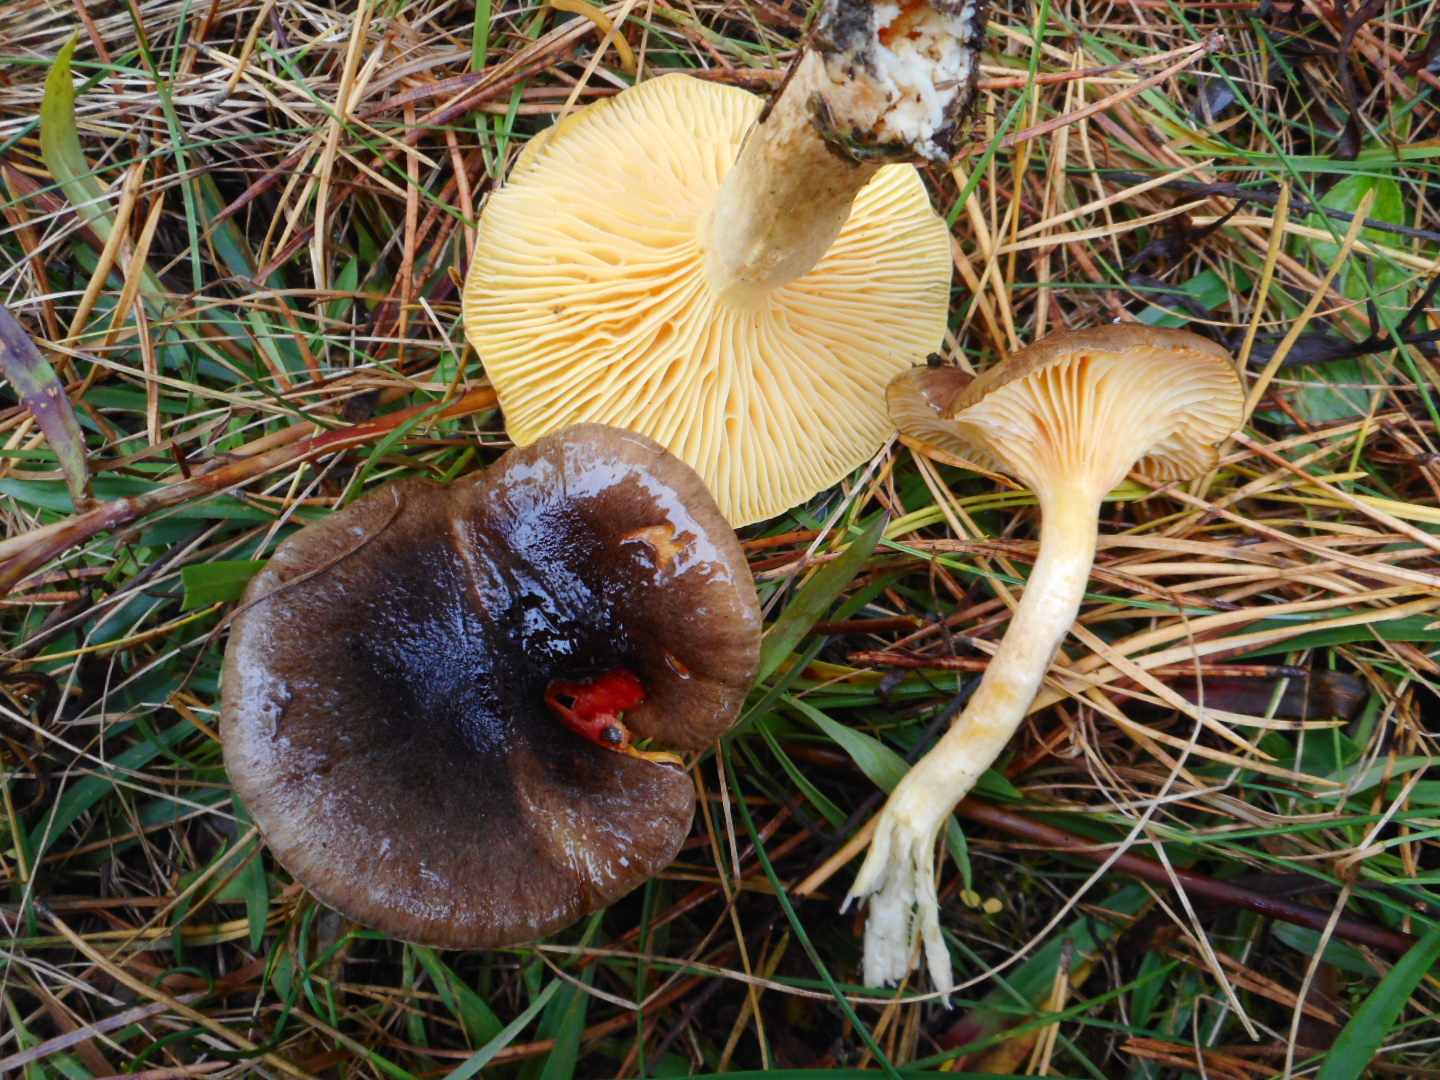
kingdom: Fungi
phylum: Basidiomycota
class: Agaricomycetes
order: Agaricales
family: Hygrophoraceae
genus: Hygrophorus
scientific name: Hygrophorus hypothejus
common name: Herald of winter
